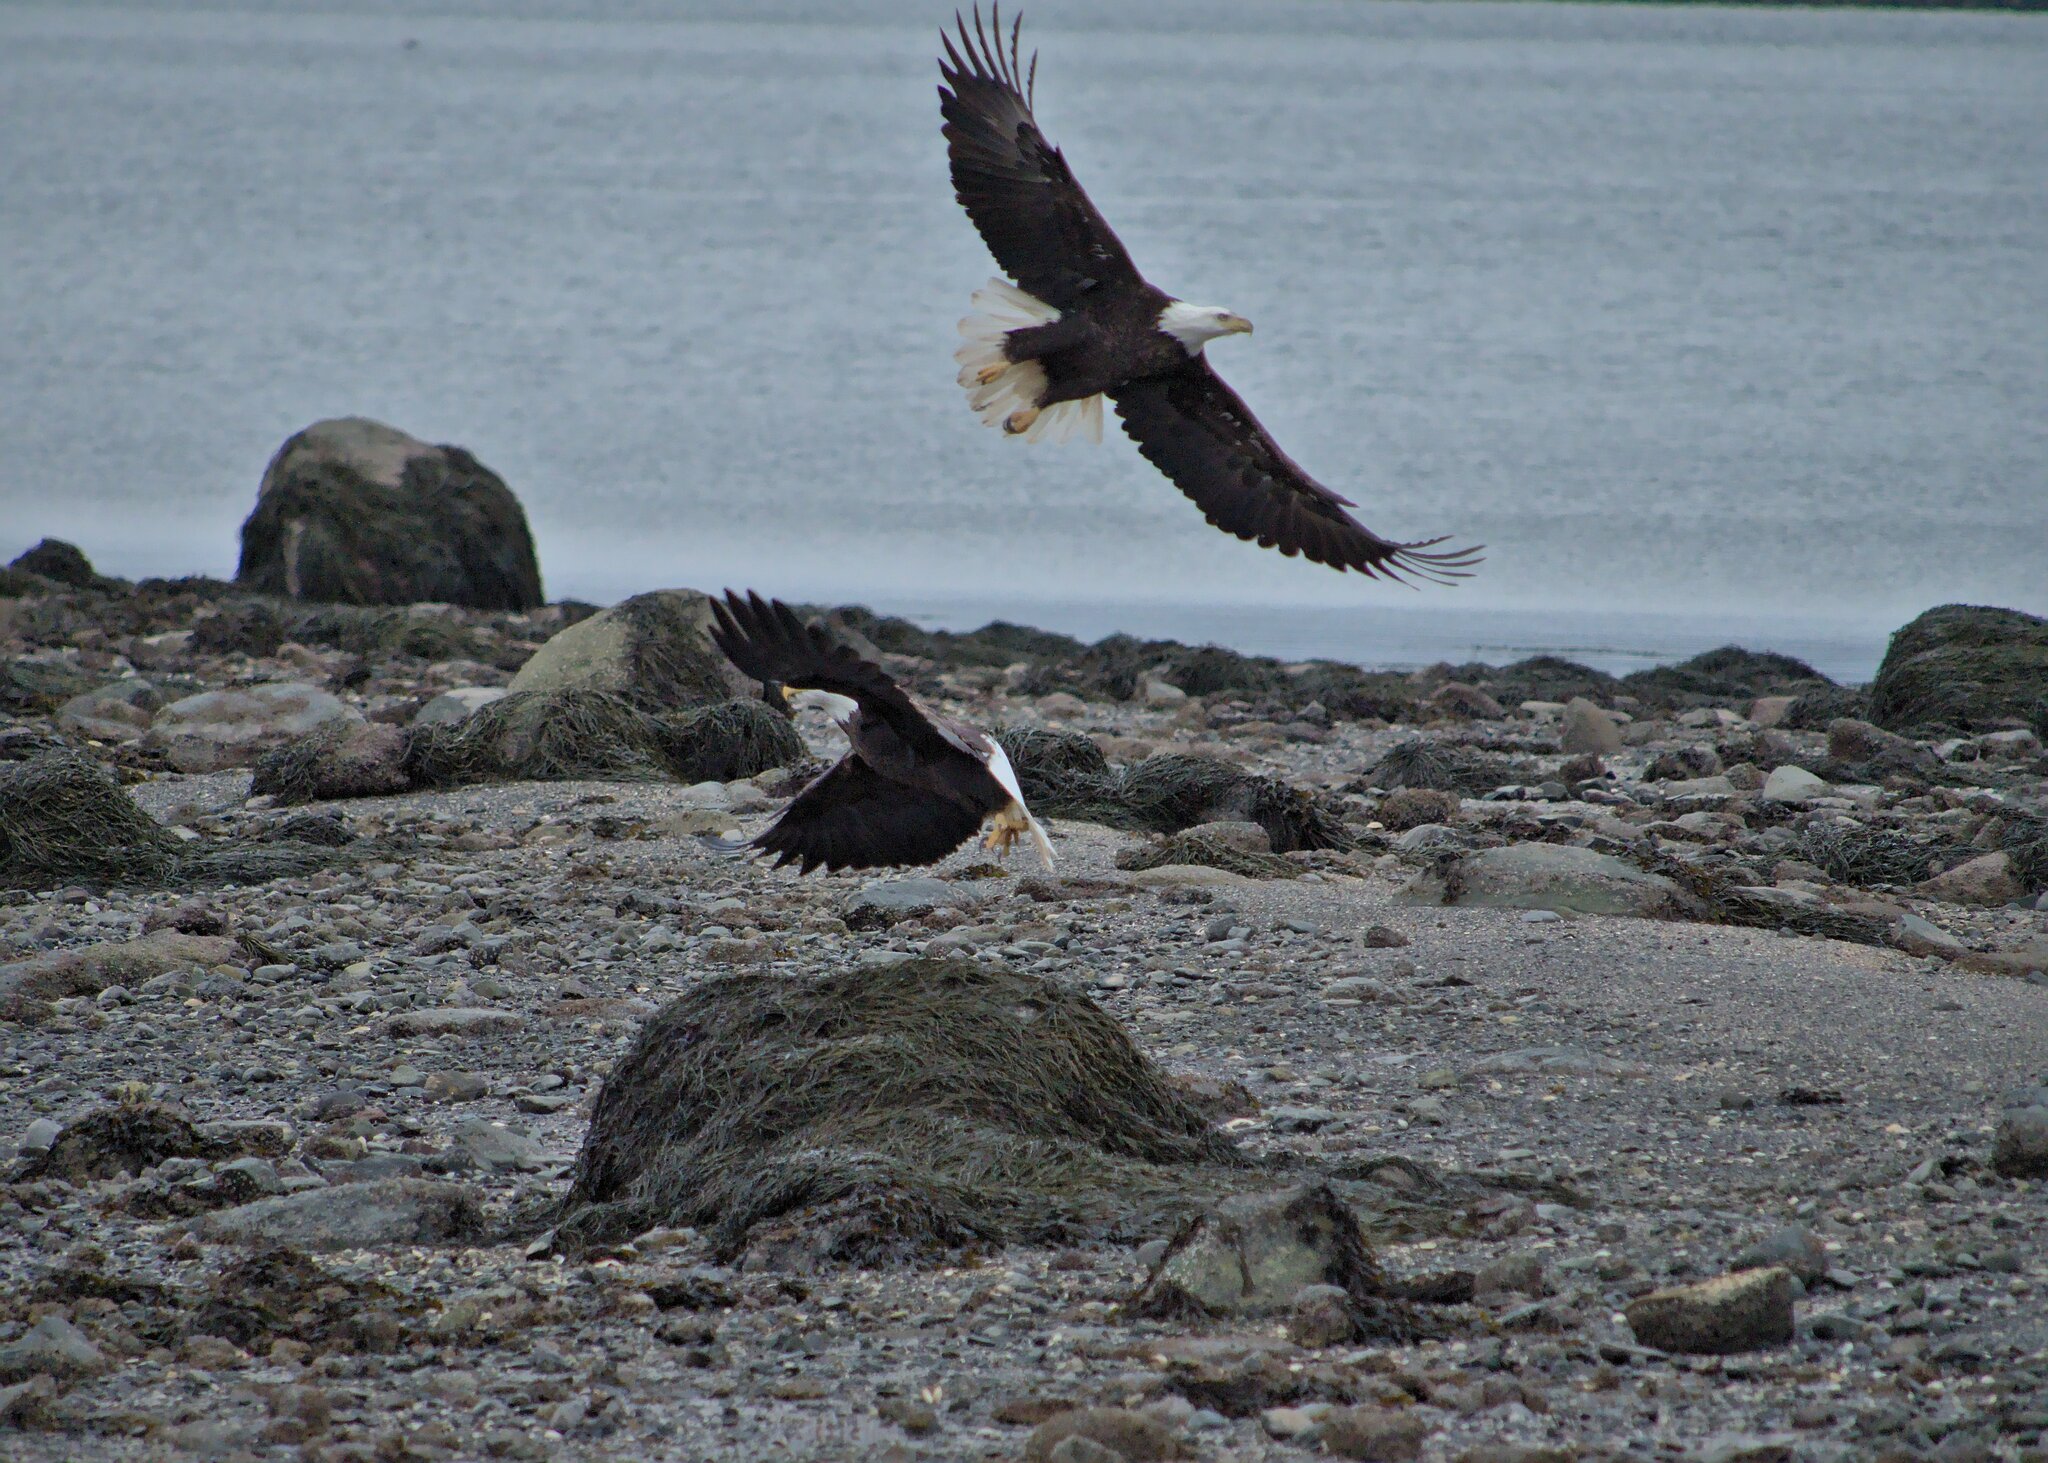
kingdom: Animalia
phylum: Chordata
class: Aves
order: Accipitriformes
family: Accipitridae
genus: Haliaeetus
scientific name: Haliaeetus leucocephalus
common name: Bald eagle
